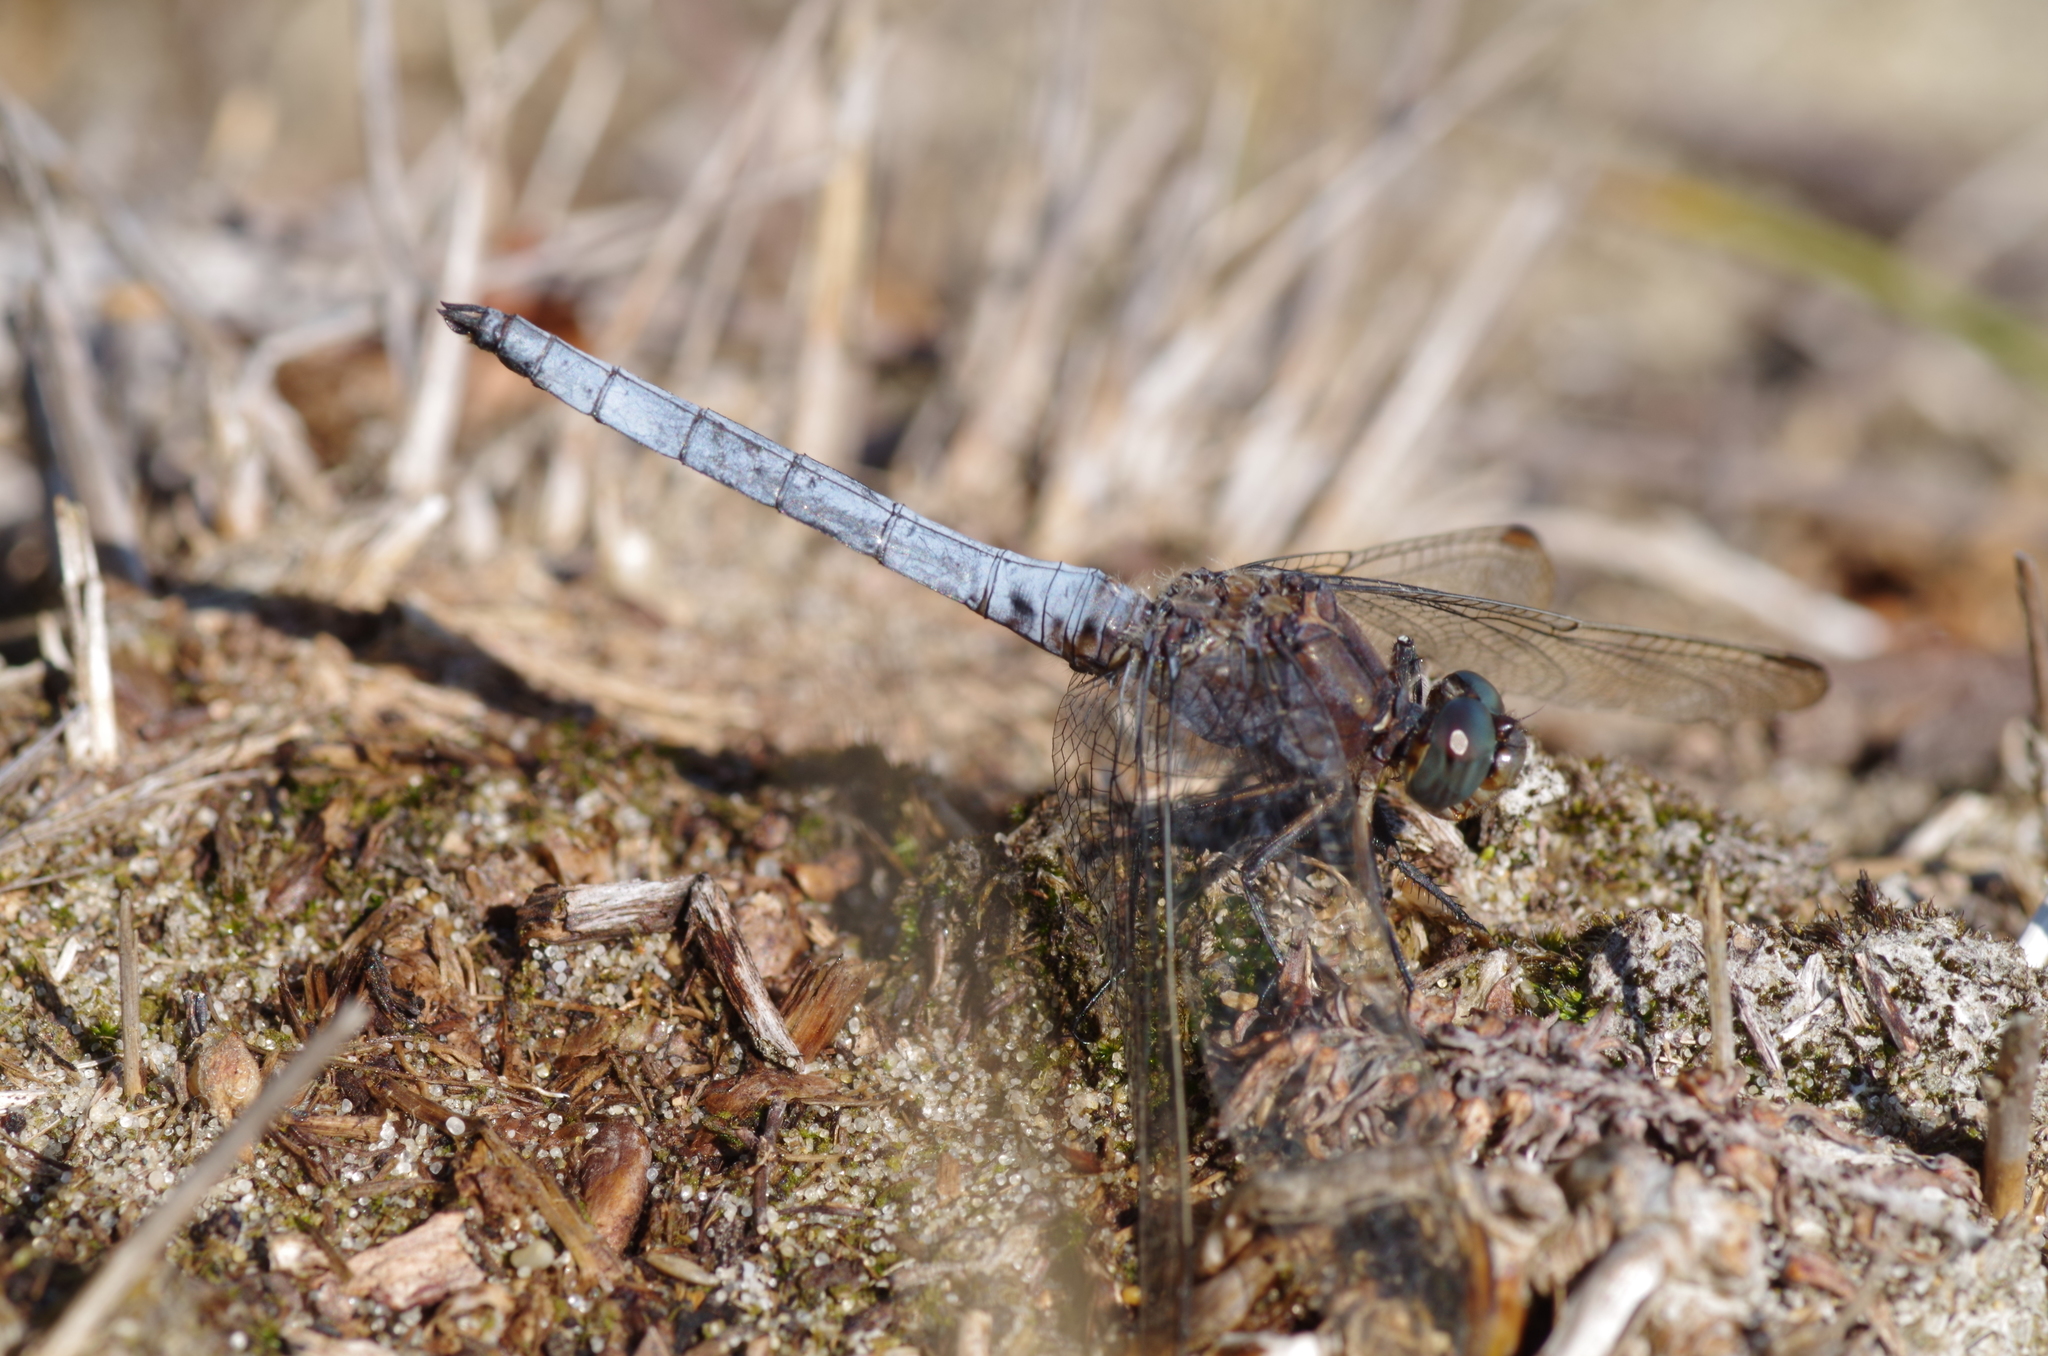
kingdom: Animalia
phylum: Arthropoda
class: Insecta
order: Odonata
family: Libellulidae
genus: Orthetrum
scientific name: Orthetrum coerulescens
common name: Keeled skimmer
